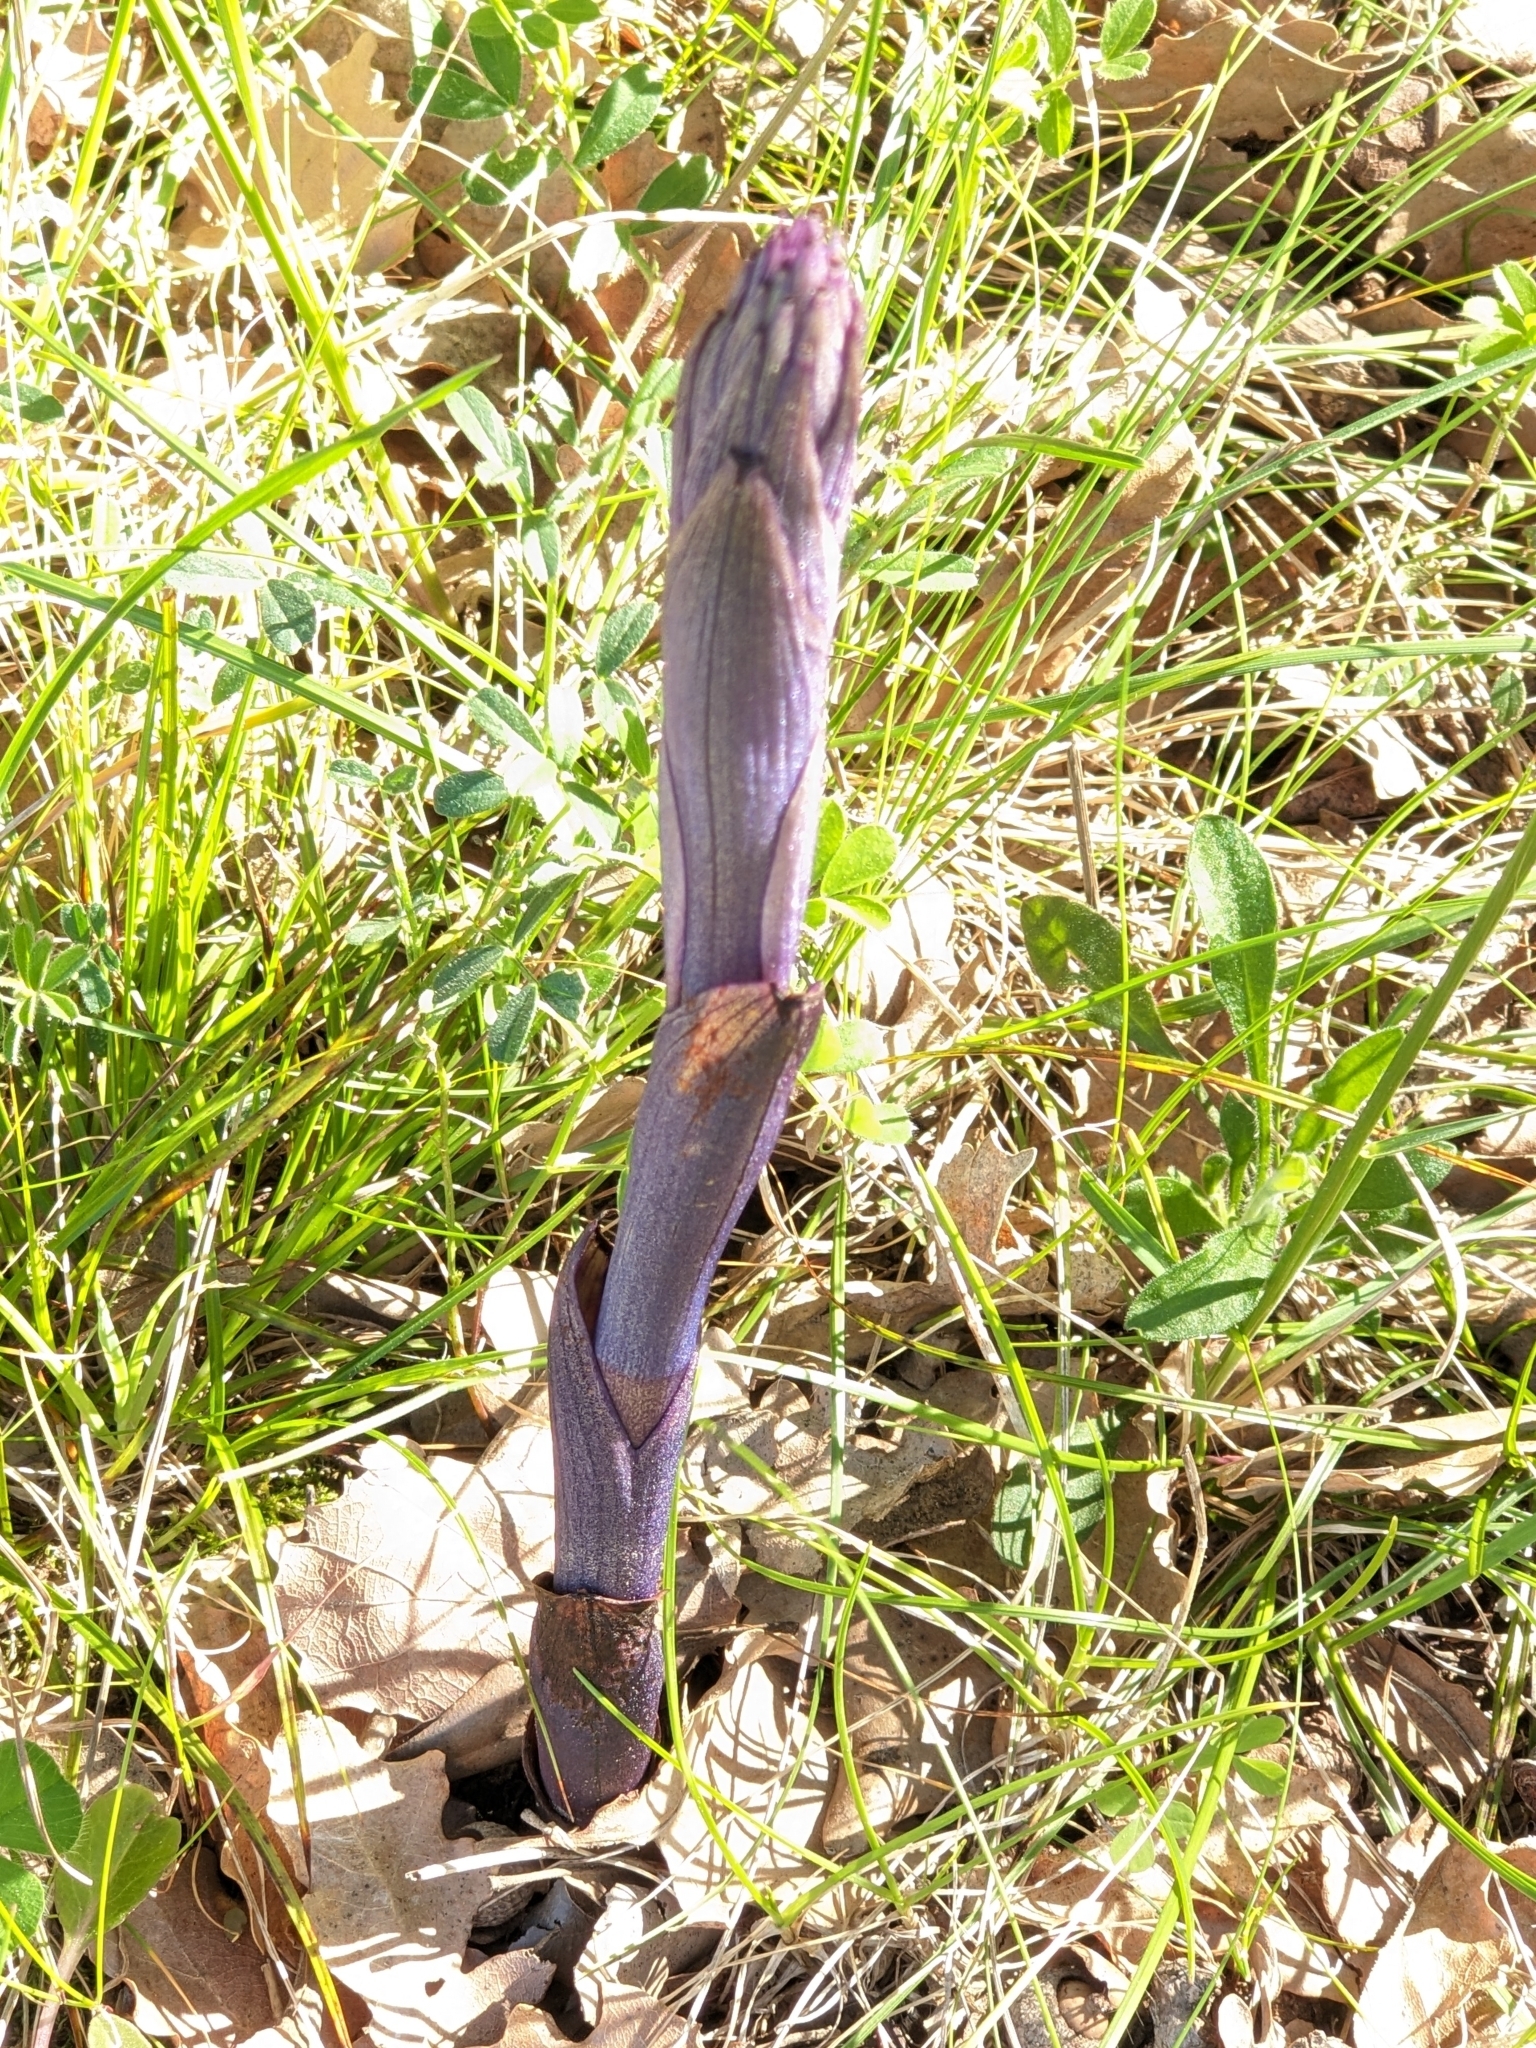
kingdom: Plantae
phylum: Tracheophyta
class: Liliopsida
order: Asparagales
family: Orchidaceae
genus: Limodorum
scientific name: Limodorum abortivum
